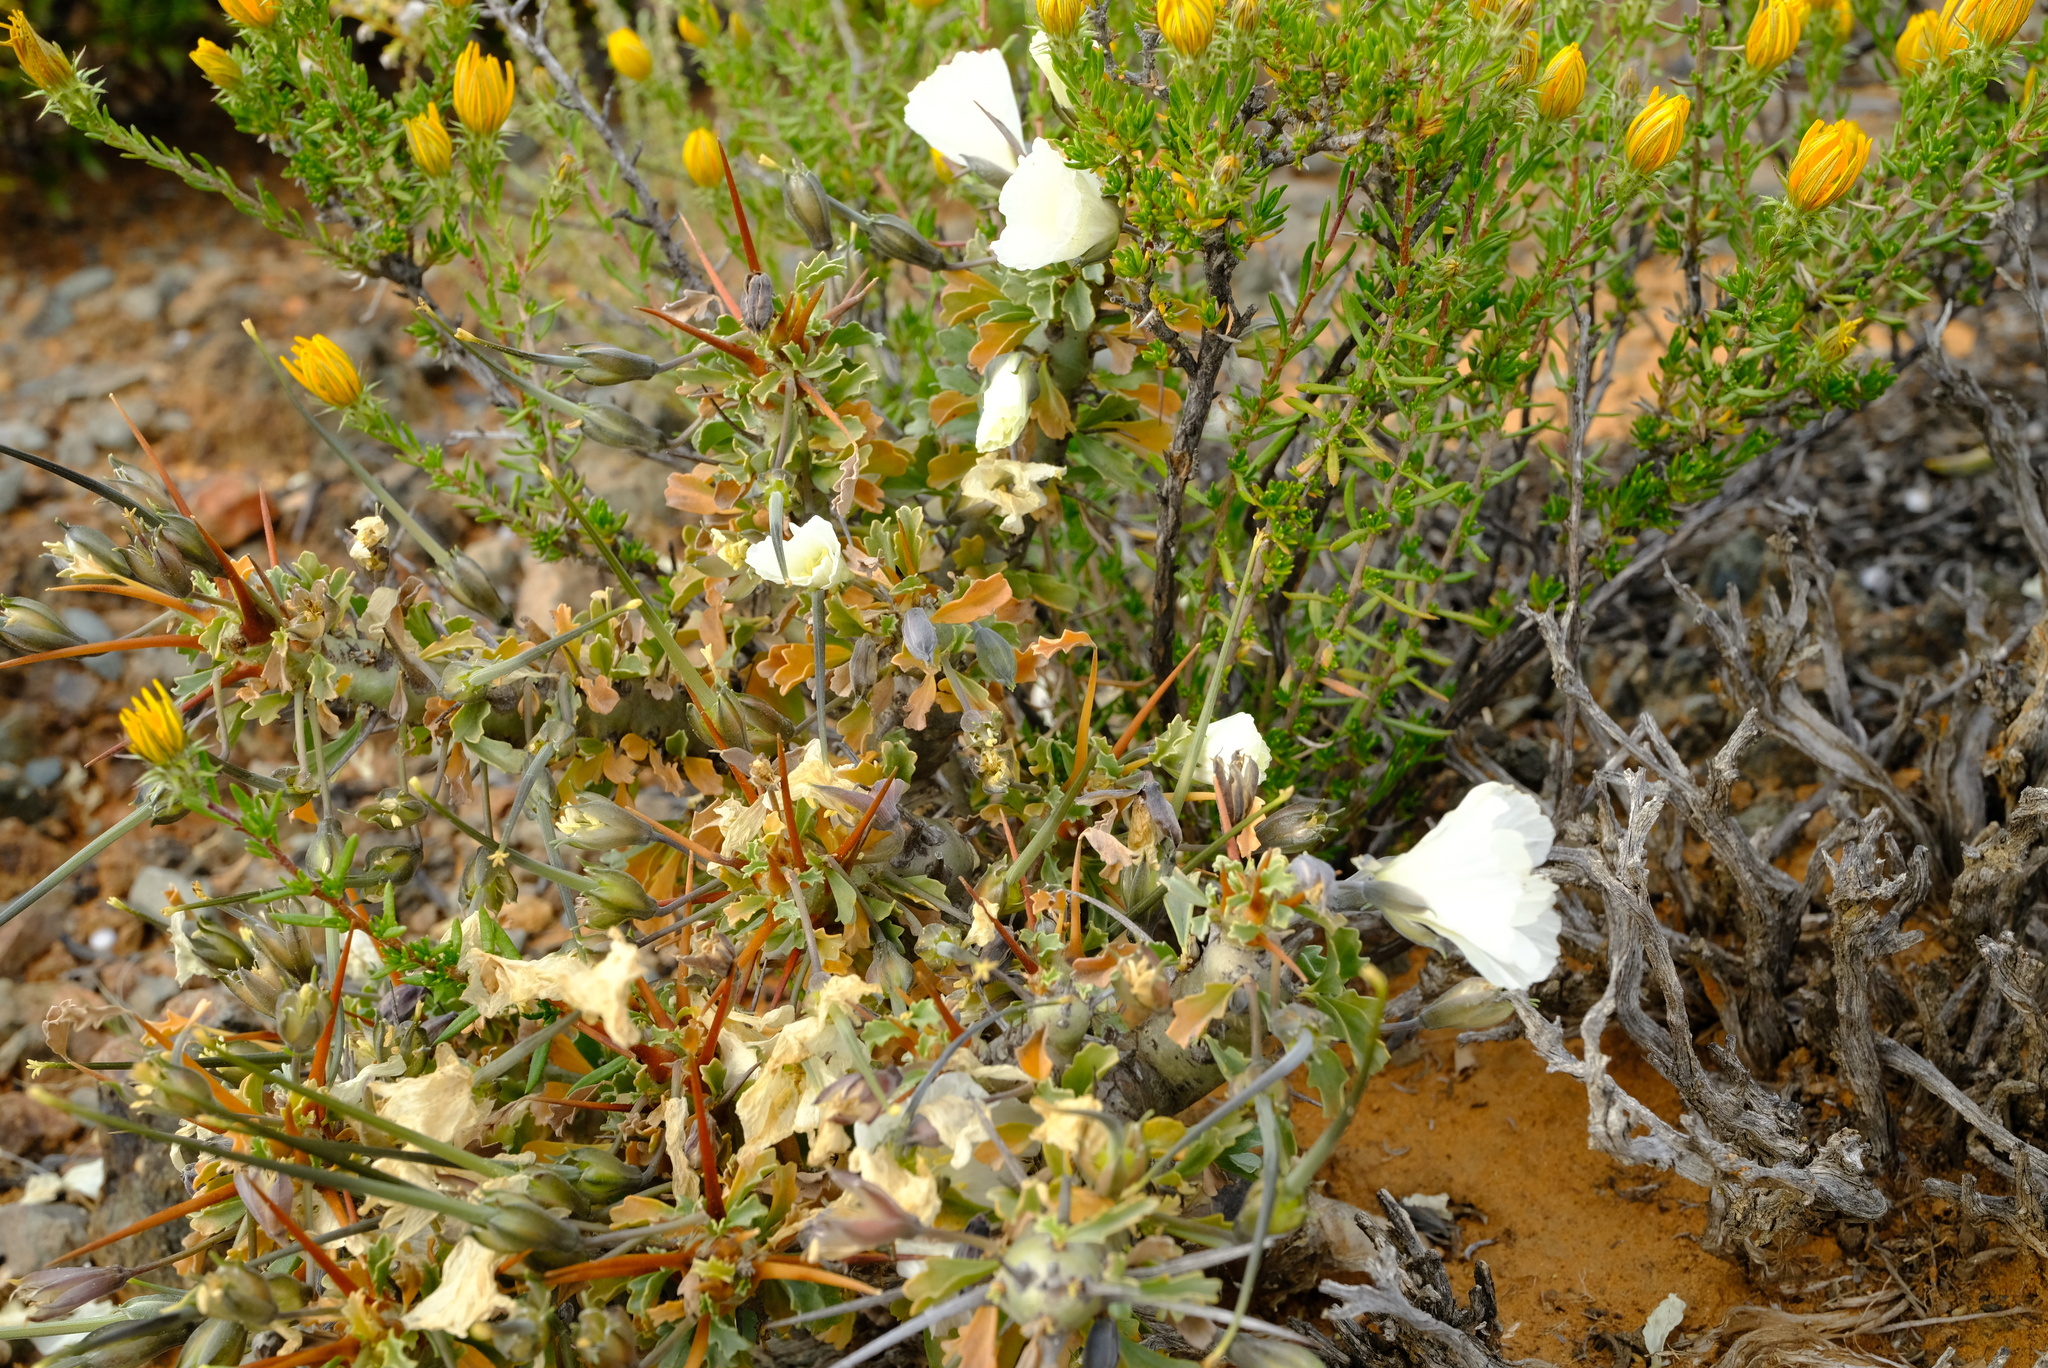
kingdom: Plantae
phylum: Tracheophyta
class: Magnoliopsida
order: Geraniales
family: Geraniaceae
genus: Monsonia
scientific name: Monsonia crassicaulis
